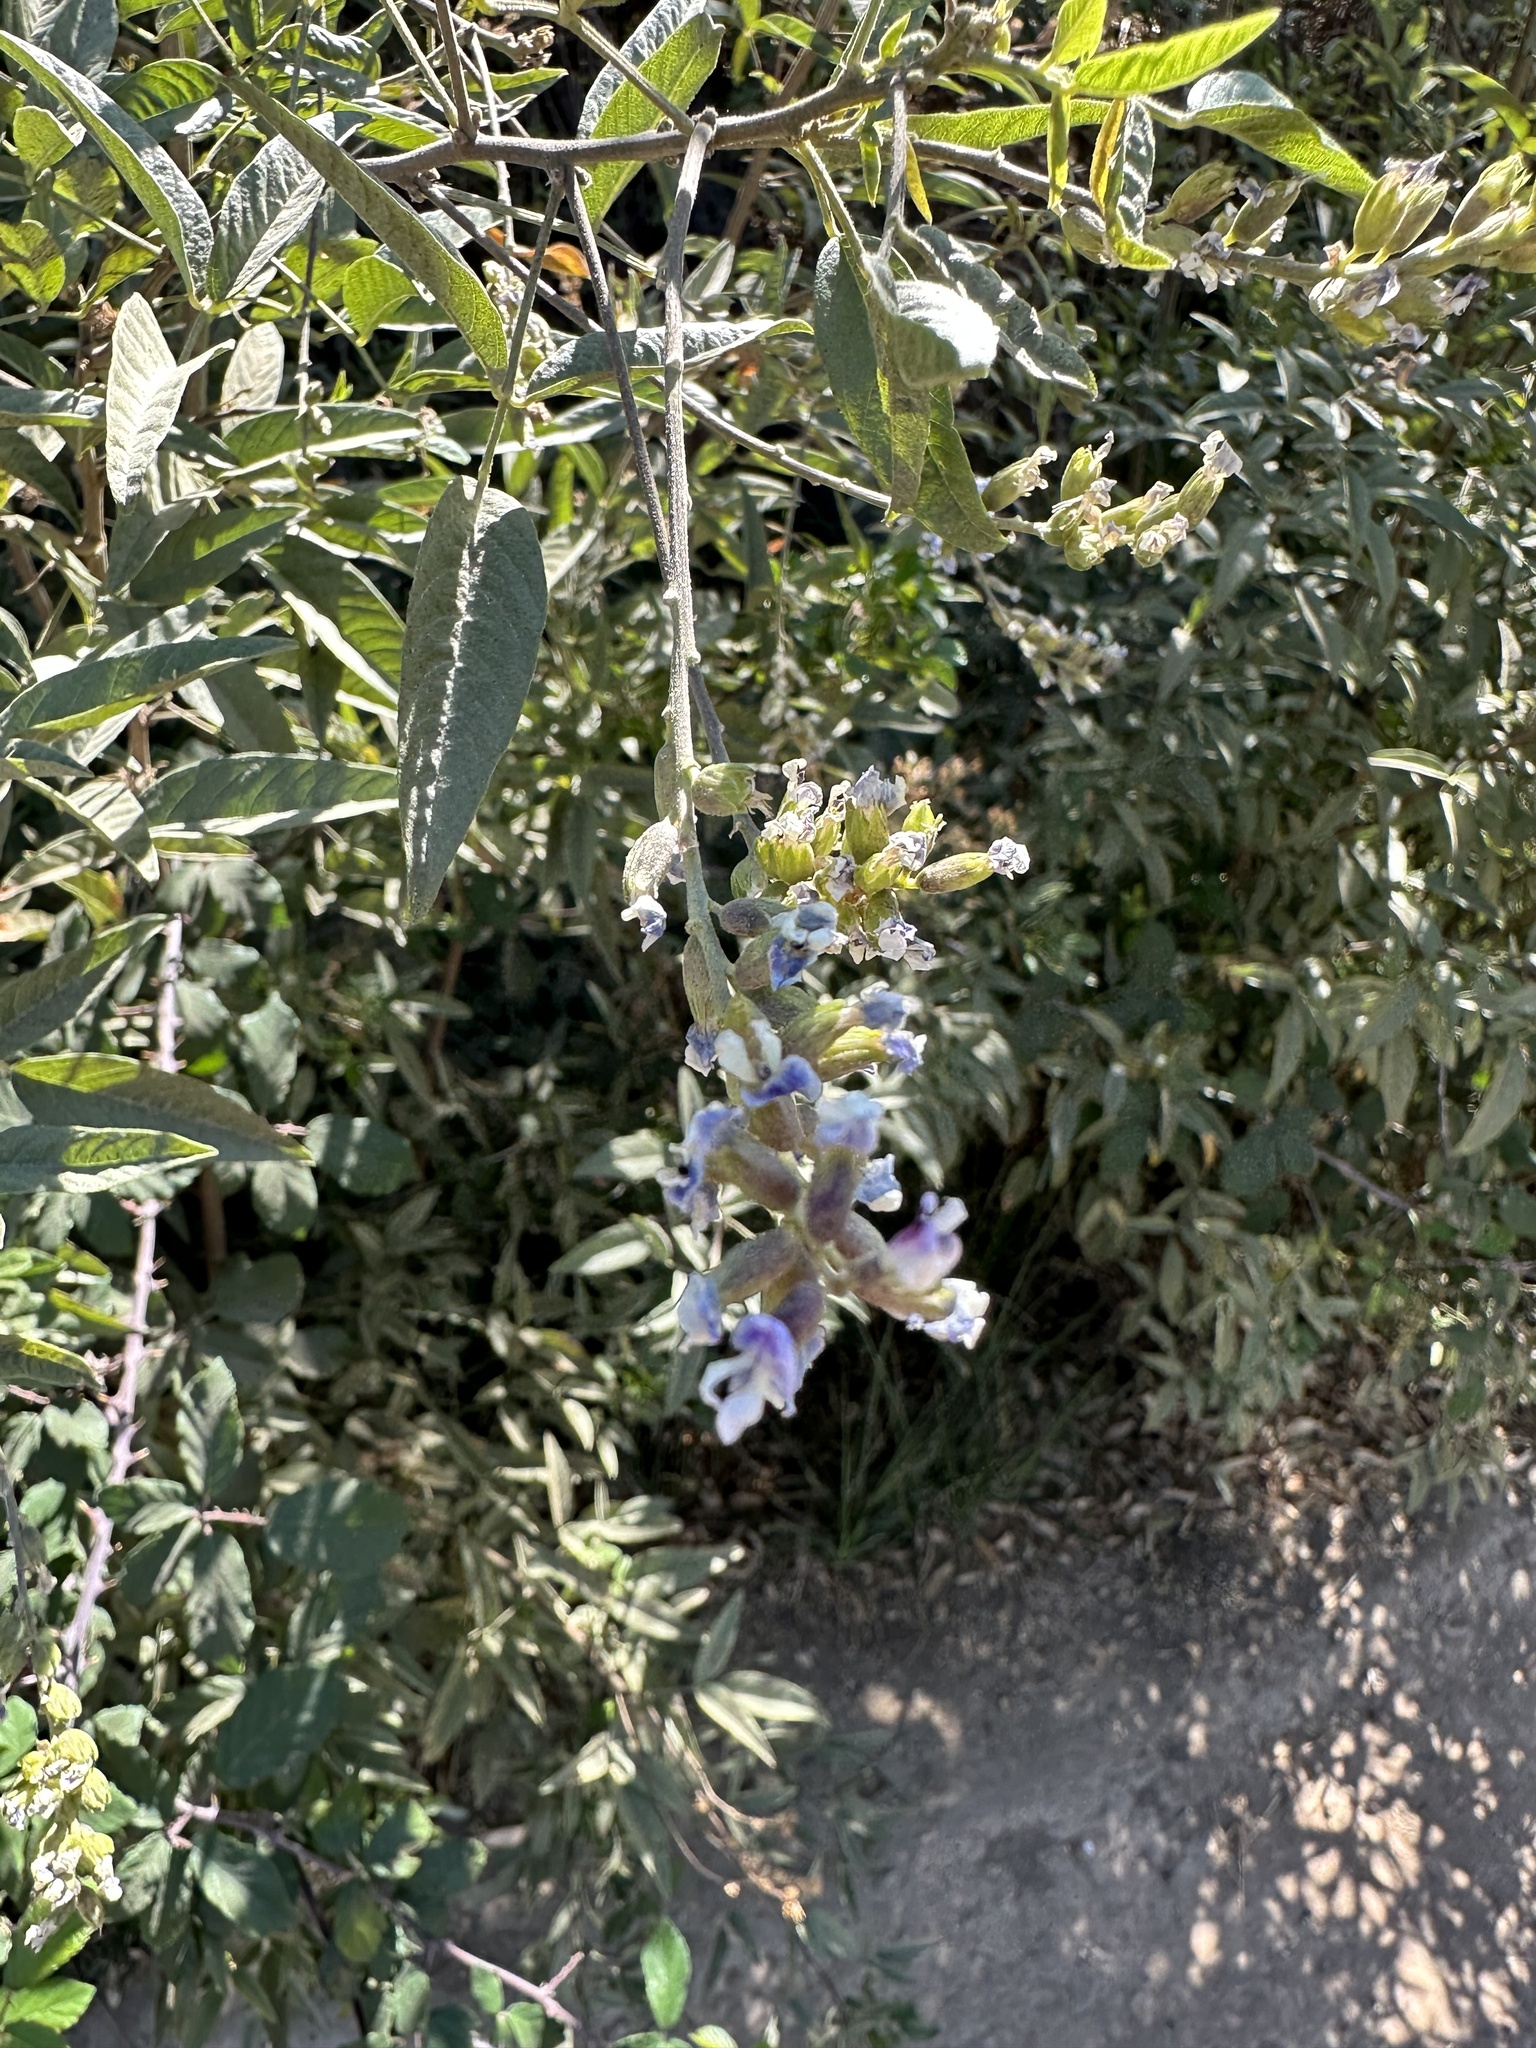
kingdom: Plantae
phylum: Tracheophyta
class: Magnoliopsida
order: Fabales
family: Fabaceae
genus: Psoralea
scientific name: Psoralea Otholobium glandulosum
